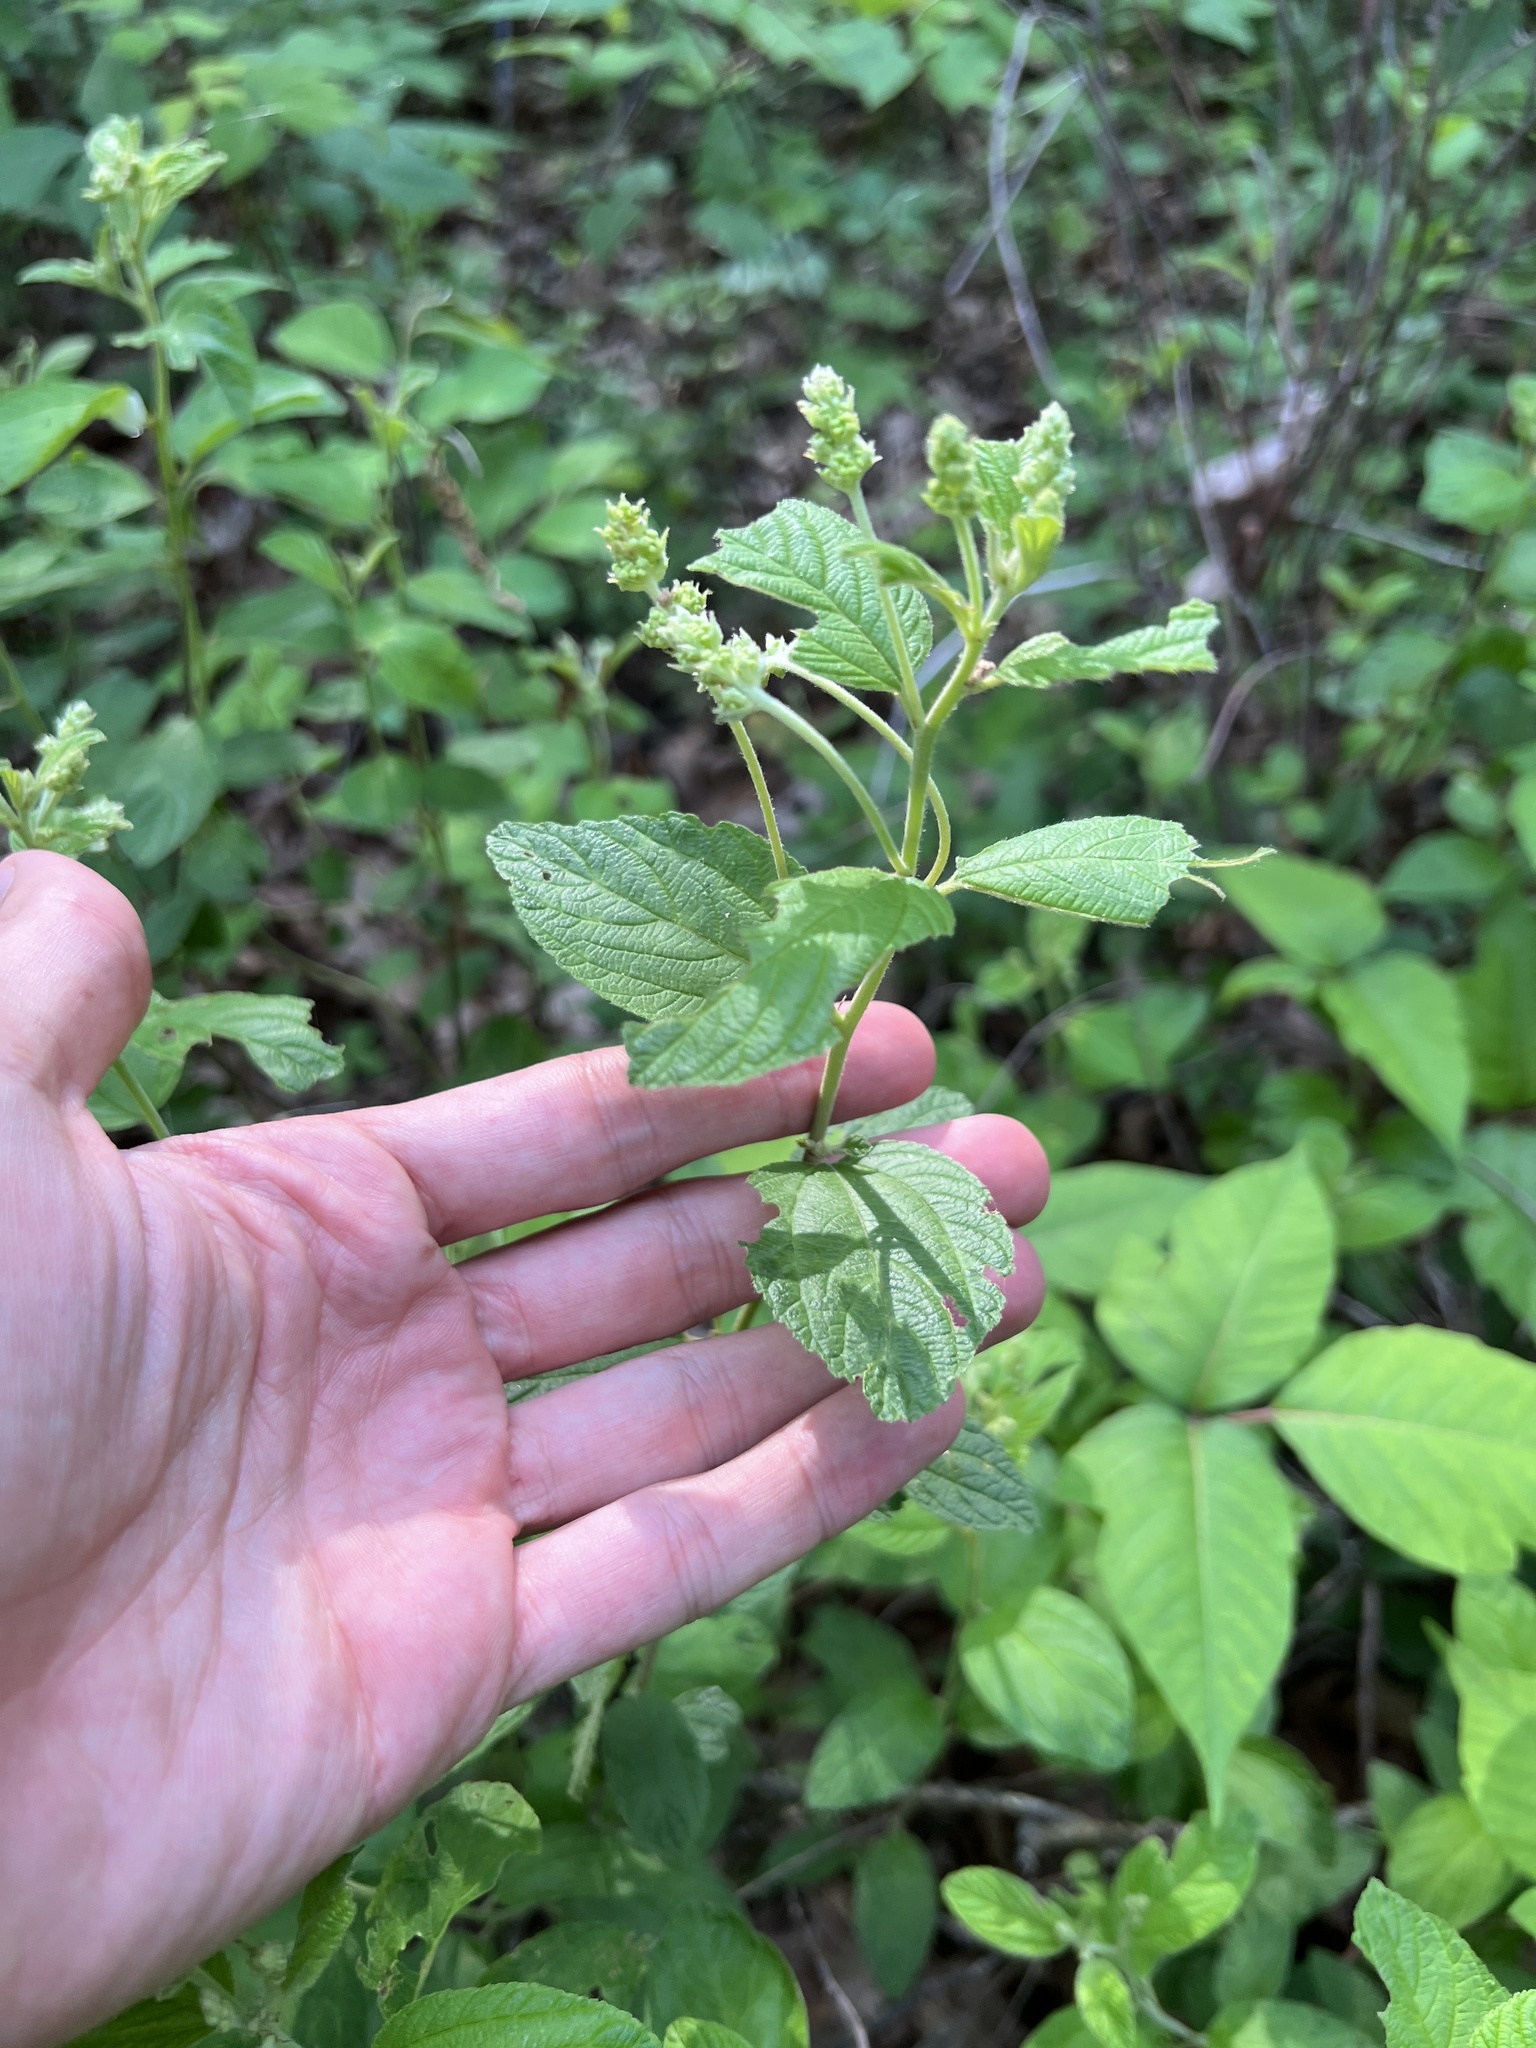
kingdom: Plantae
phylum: Tracheophyta
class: Magnoliopsida
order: Rosales
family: Rhamnaceae
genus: Ceanothus
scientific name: Ceanothus americanus
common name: Redroot
